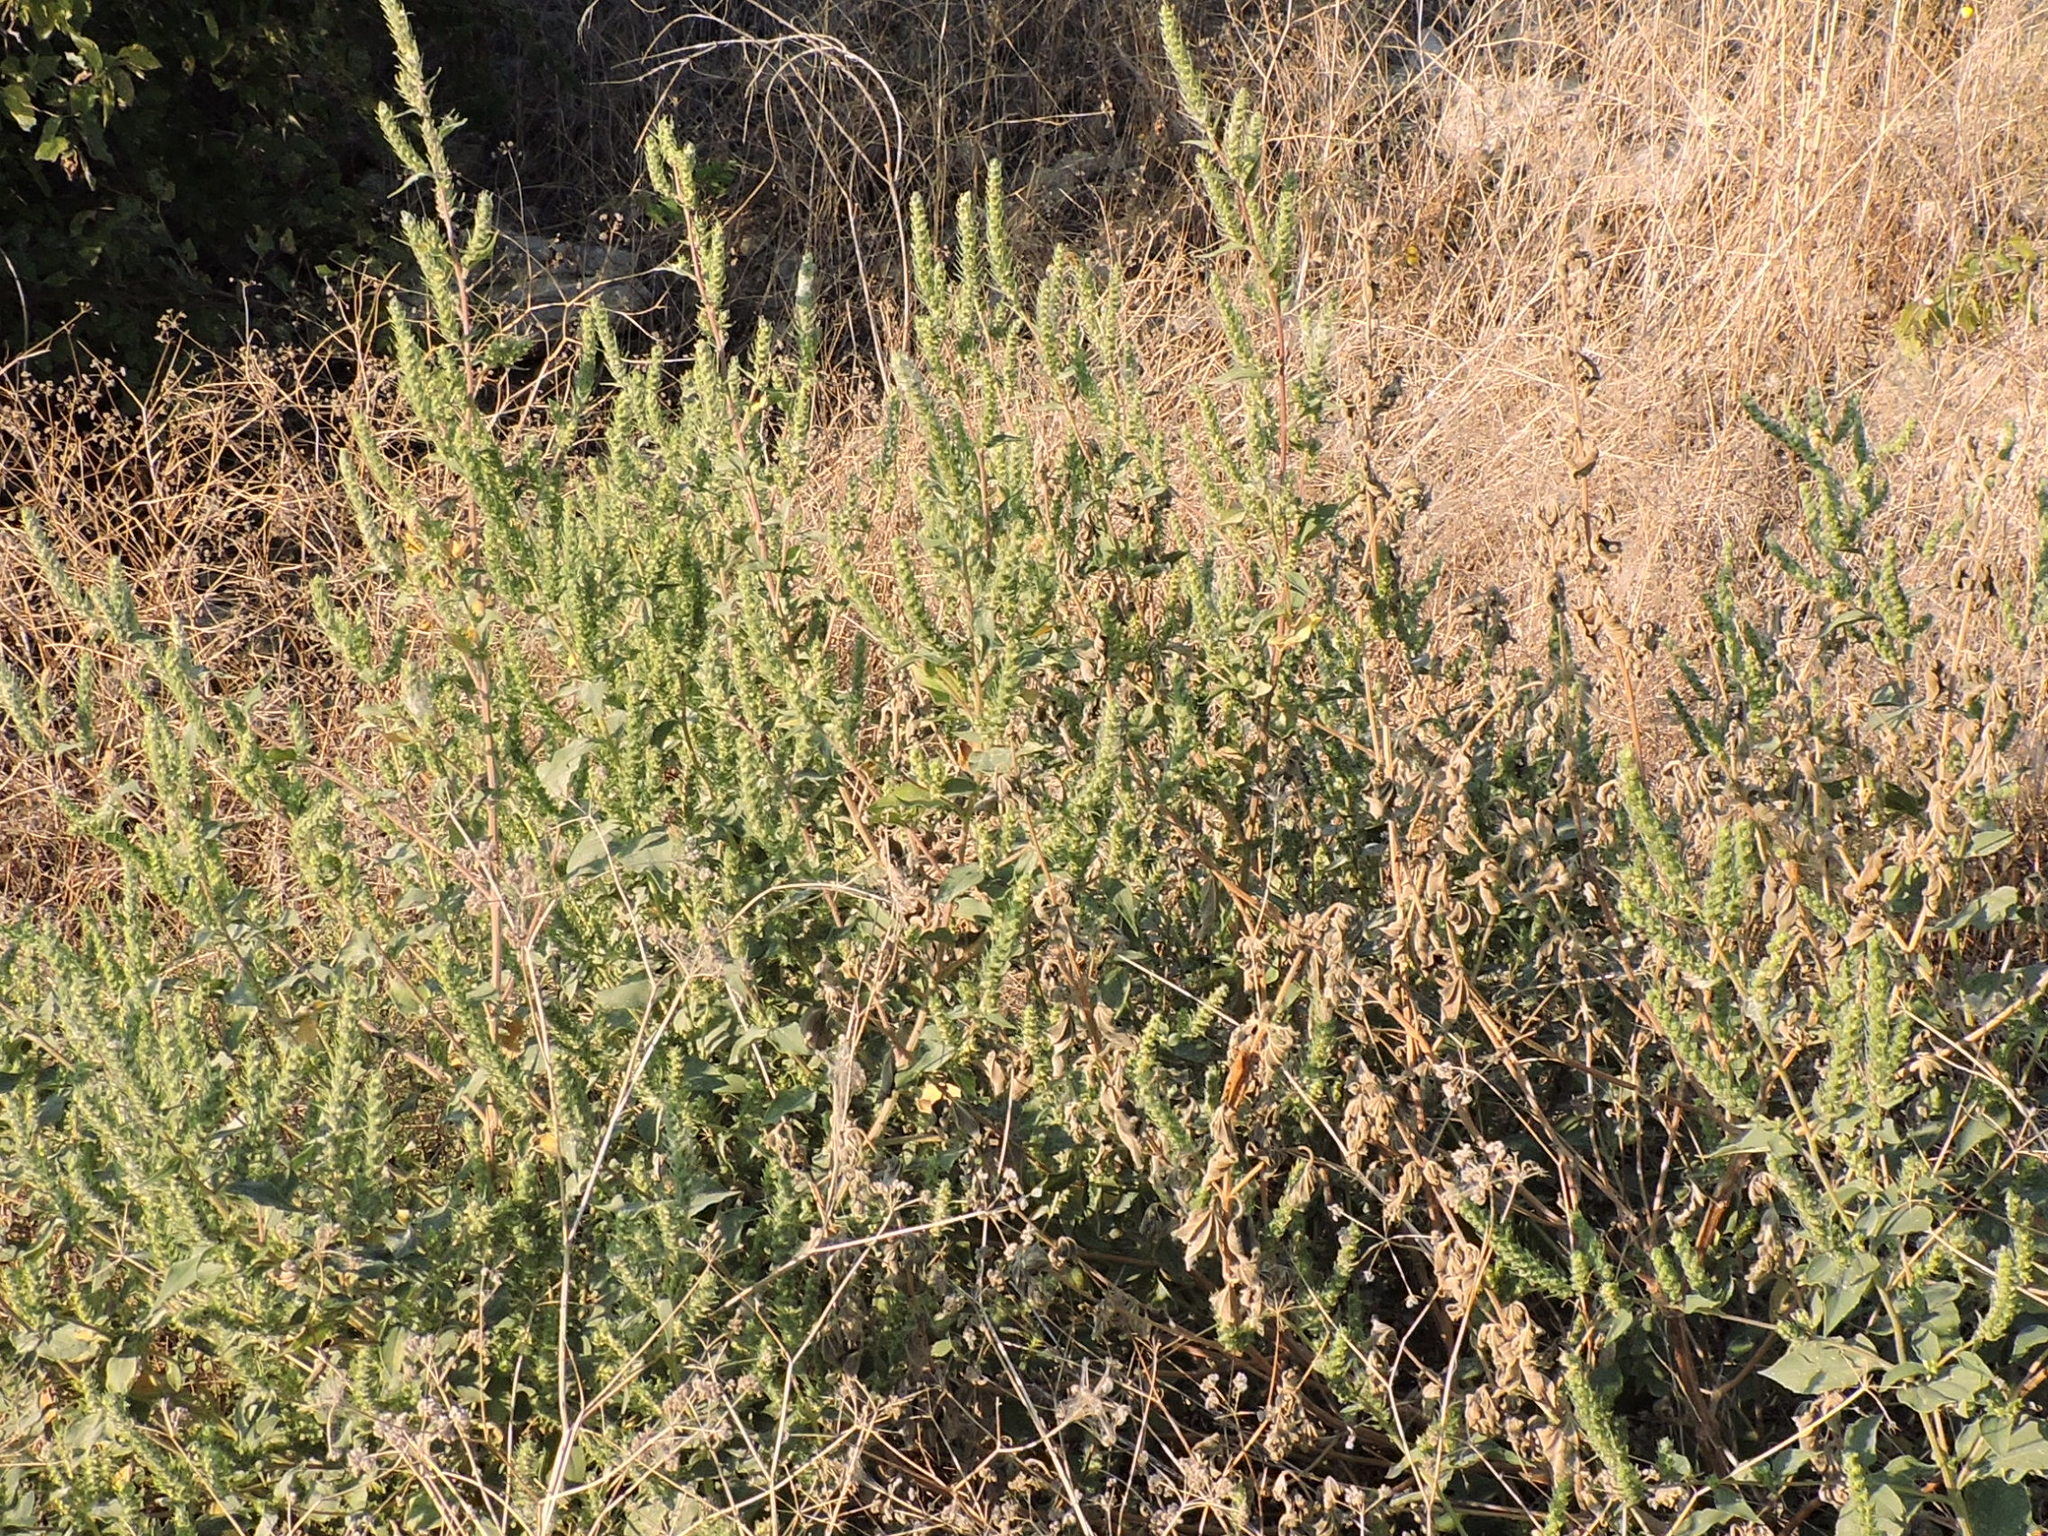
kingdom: Plantae
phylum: Tracheophyta
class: Magnoliopsida
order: Asterales
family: Asteraceae
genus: Iva
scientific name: Iva annua
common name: Marsh-elder
